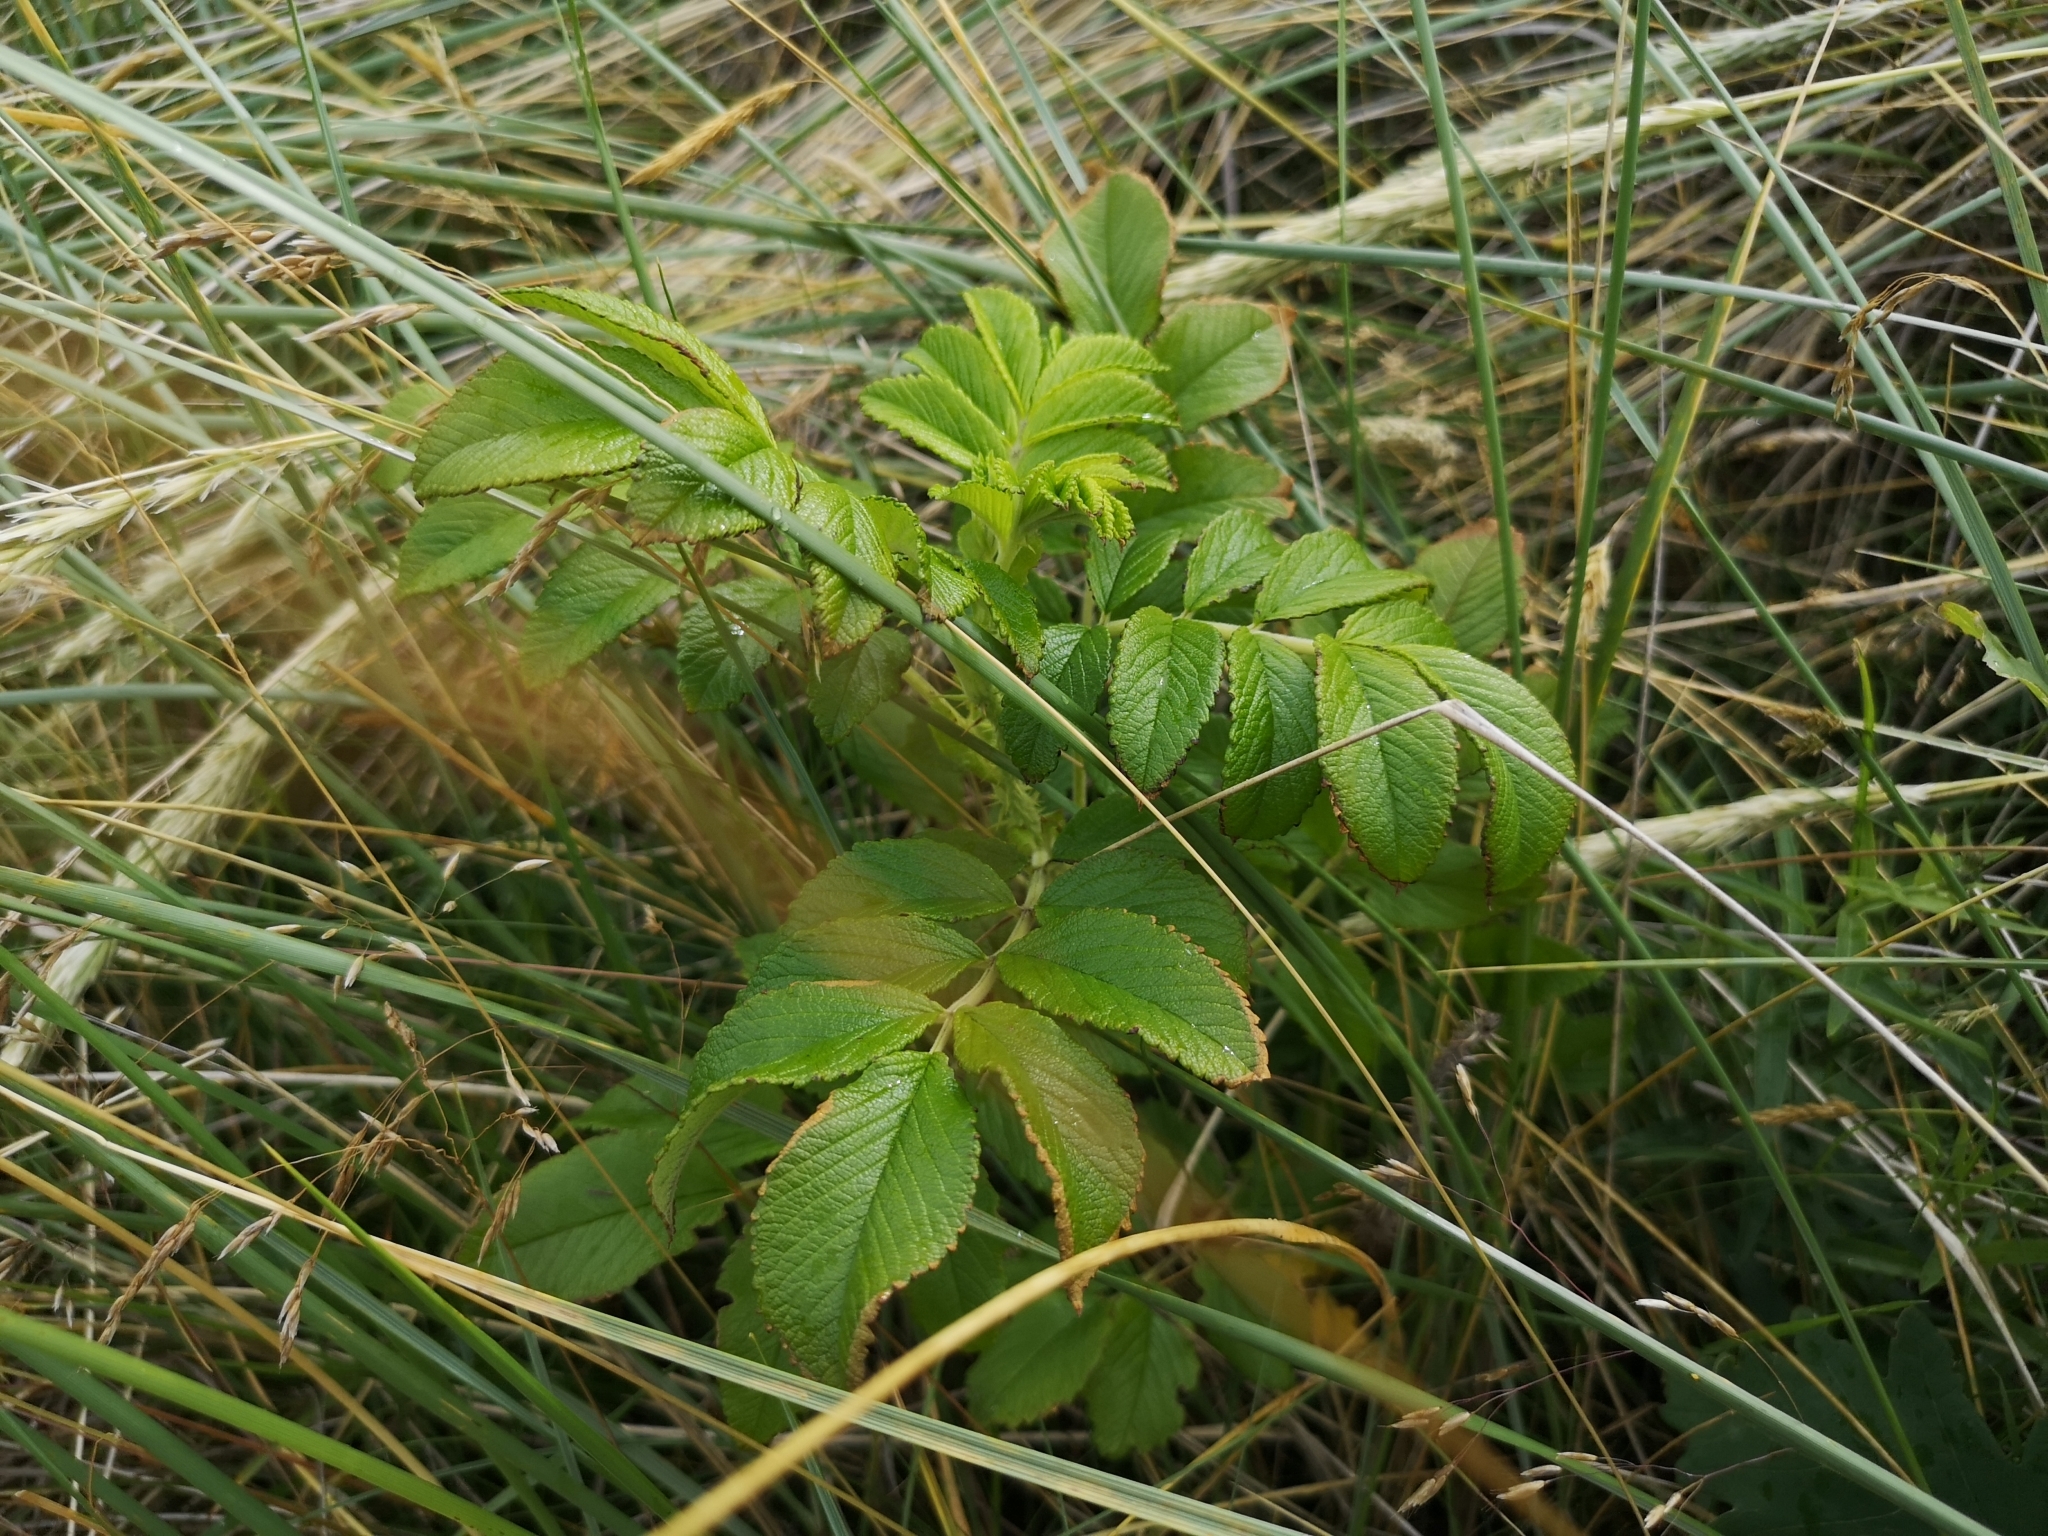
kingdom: Plantae
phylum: Tracheophyta
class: Magnoliopsida
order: Rosales
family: Rosaceae
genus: Rosa
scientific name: Rosa rugosa
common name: Japanese rose
